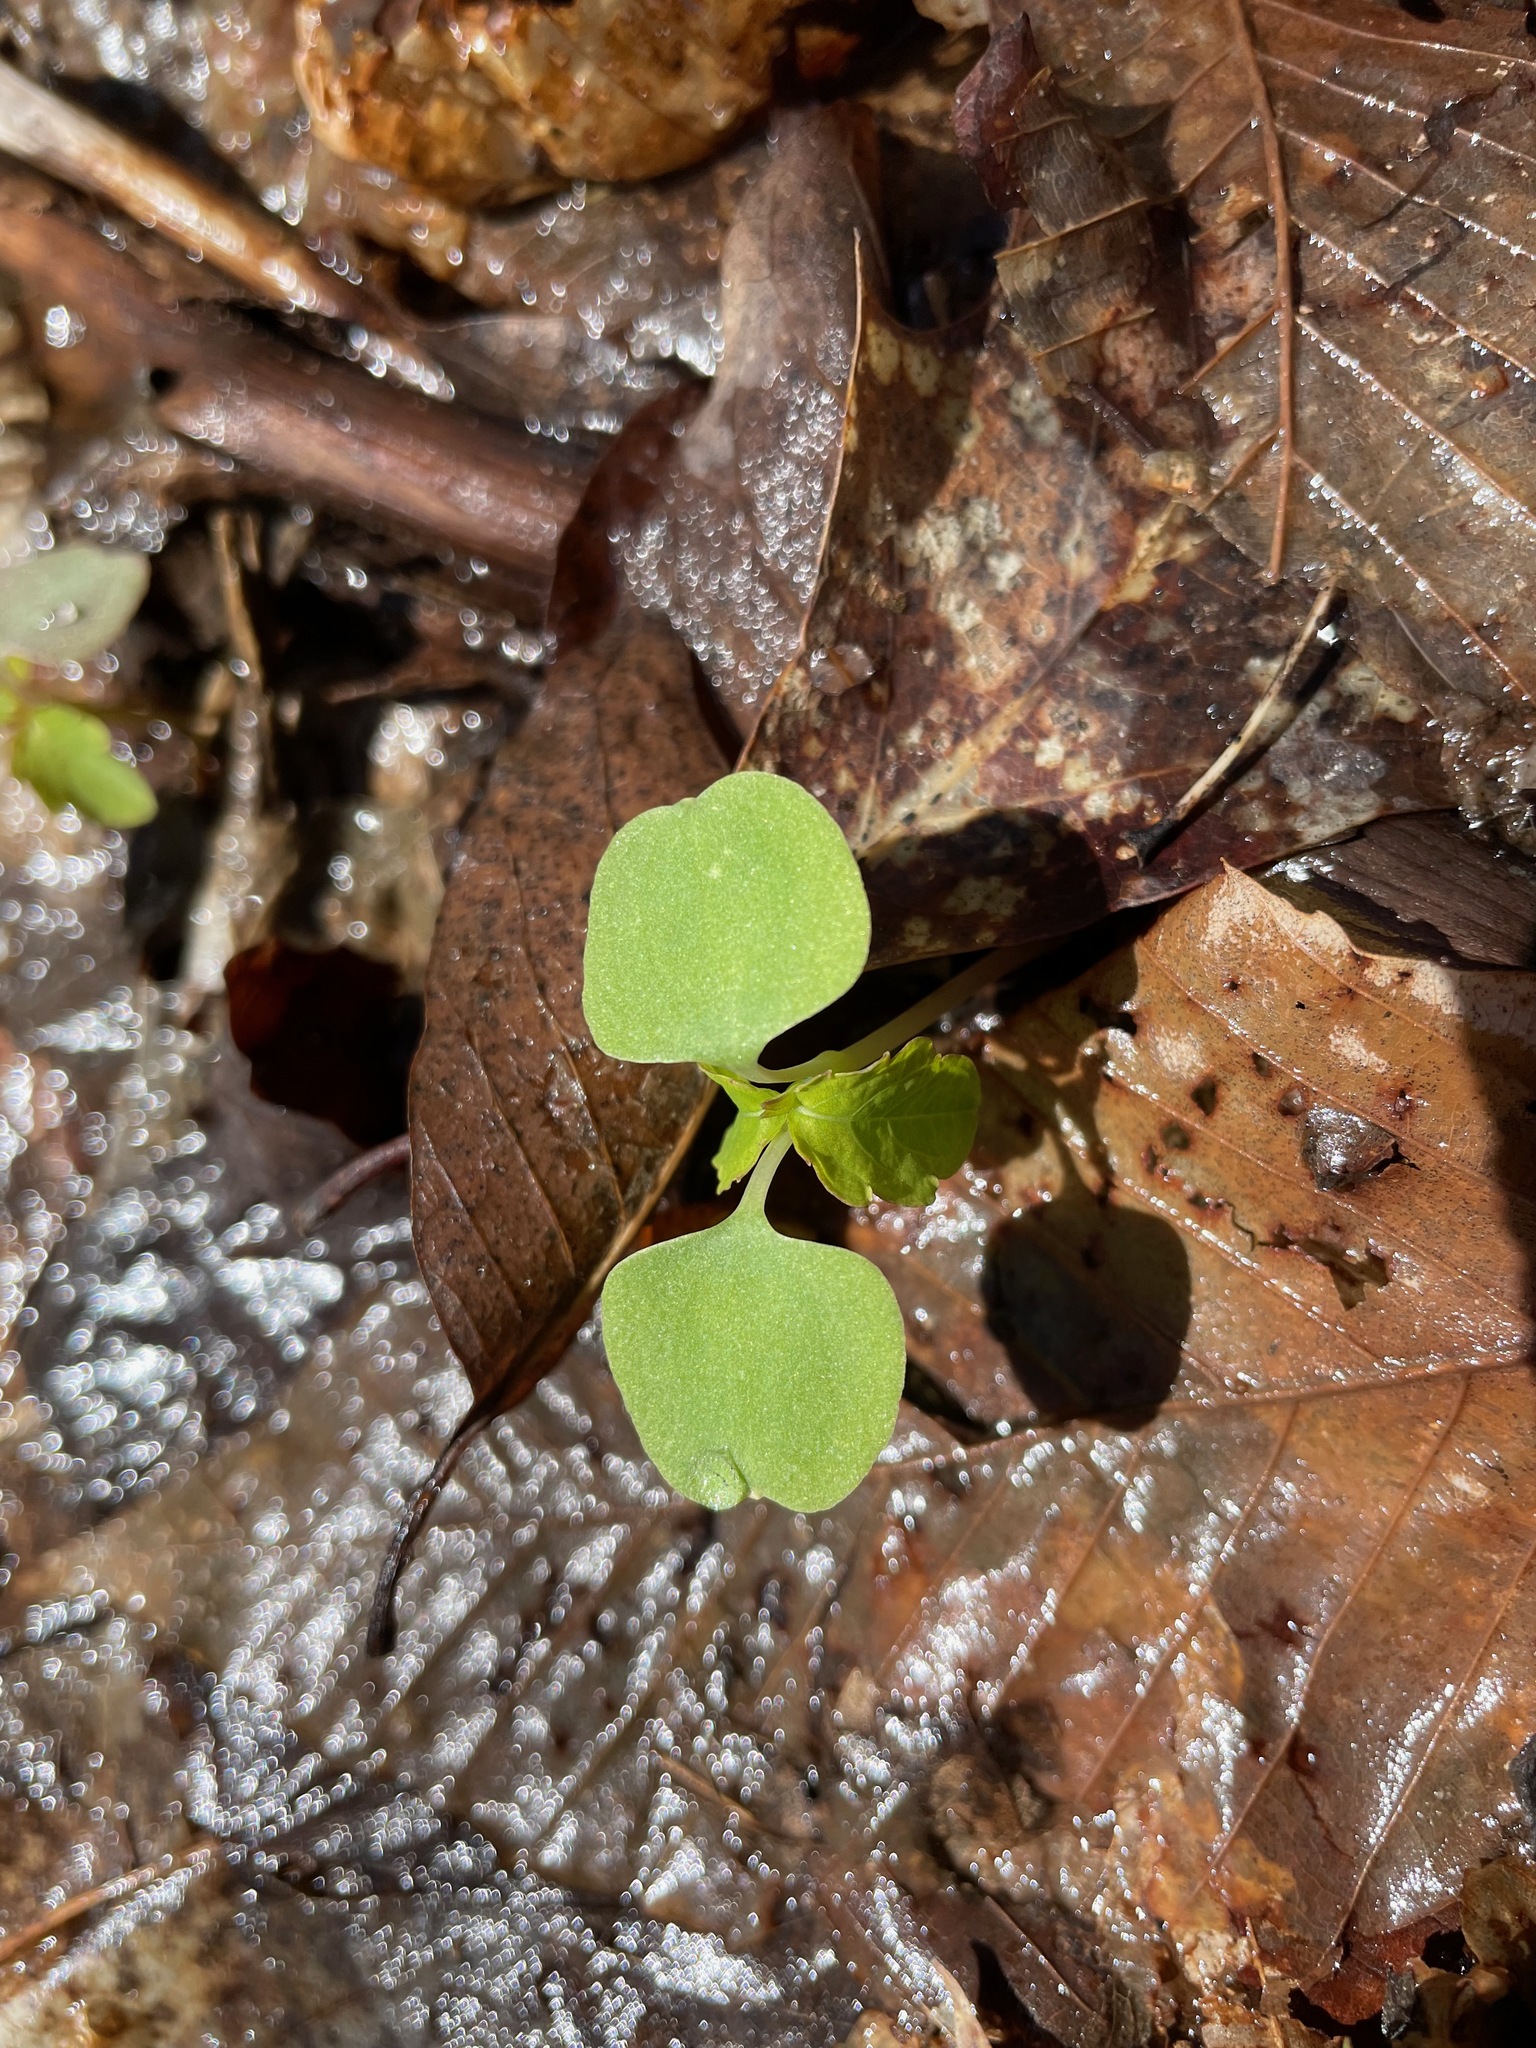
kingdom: Plantae
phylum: Tracheophyta
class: Magnoliopsida
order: Ericales
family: Balsaminaceae
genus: Impatiens
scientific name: Impatiens
